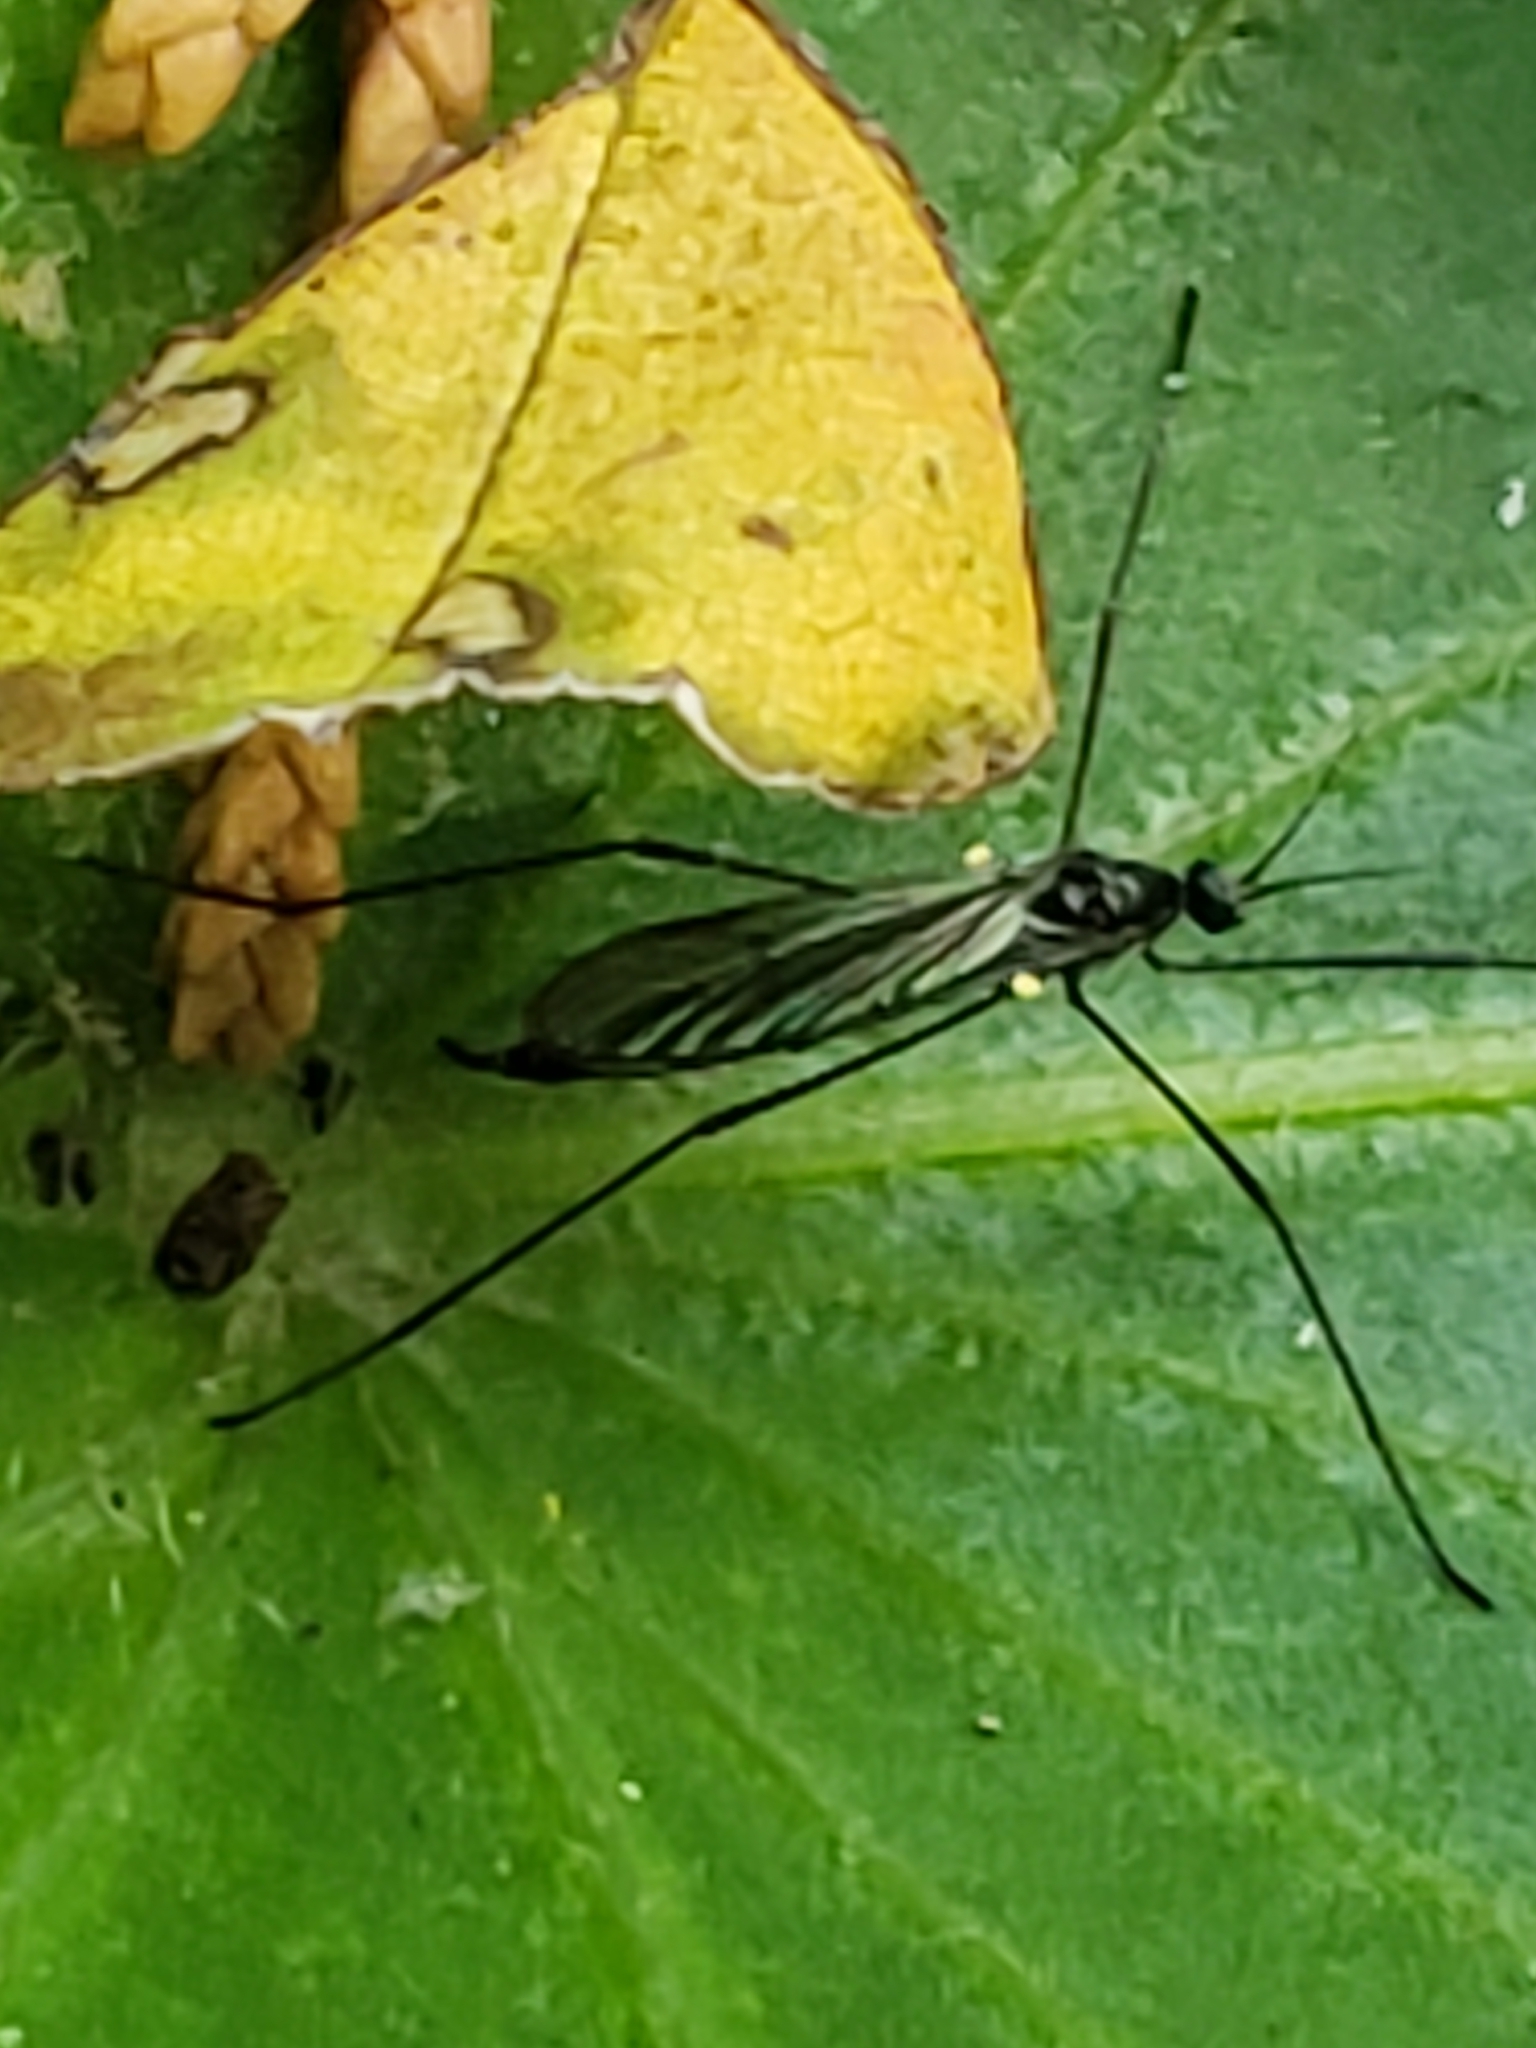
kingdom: Animalia
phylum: Arthropoda
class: Insecta
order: Diptera
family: Limoniidae
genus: Gnophomyia
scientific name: Gnophomyia tristissima
